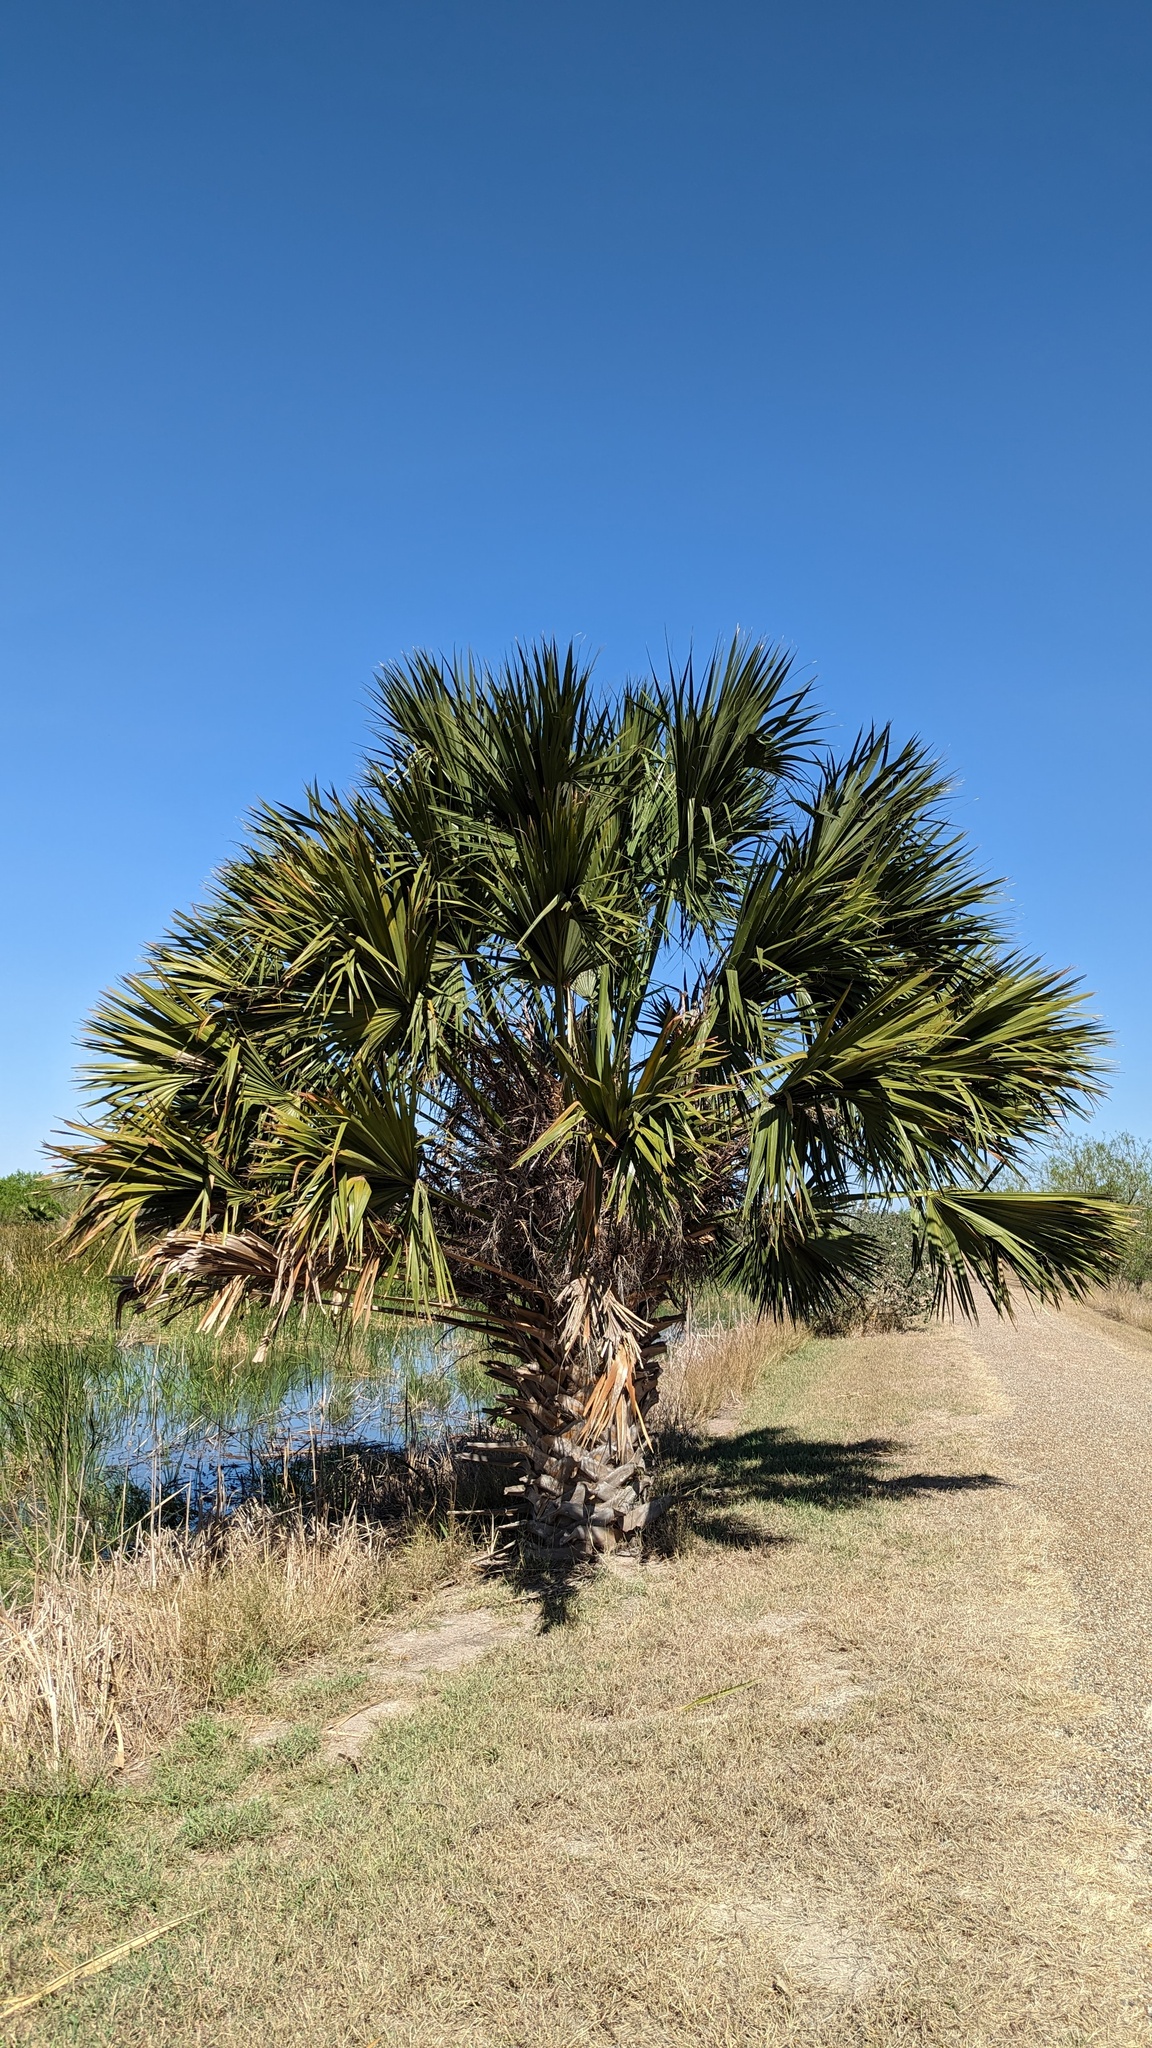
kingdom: Plantae
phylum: Tracheophyta
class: Liliopsida
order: Arecales
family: Arecaceae
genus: Sabal
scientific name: Sabal mexicana
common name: Texas palmetto
